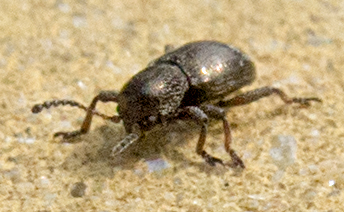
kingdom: Animalia
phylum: Arthropoda
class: Insecta
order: Coleoptera
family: Chrysomelidae
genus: Pachnephorus
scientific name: Pachnephorus villosus
